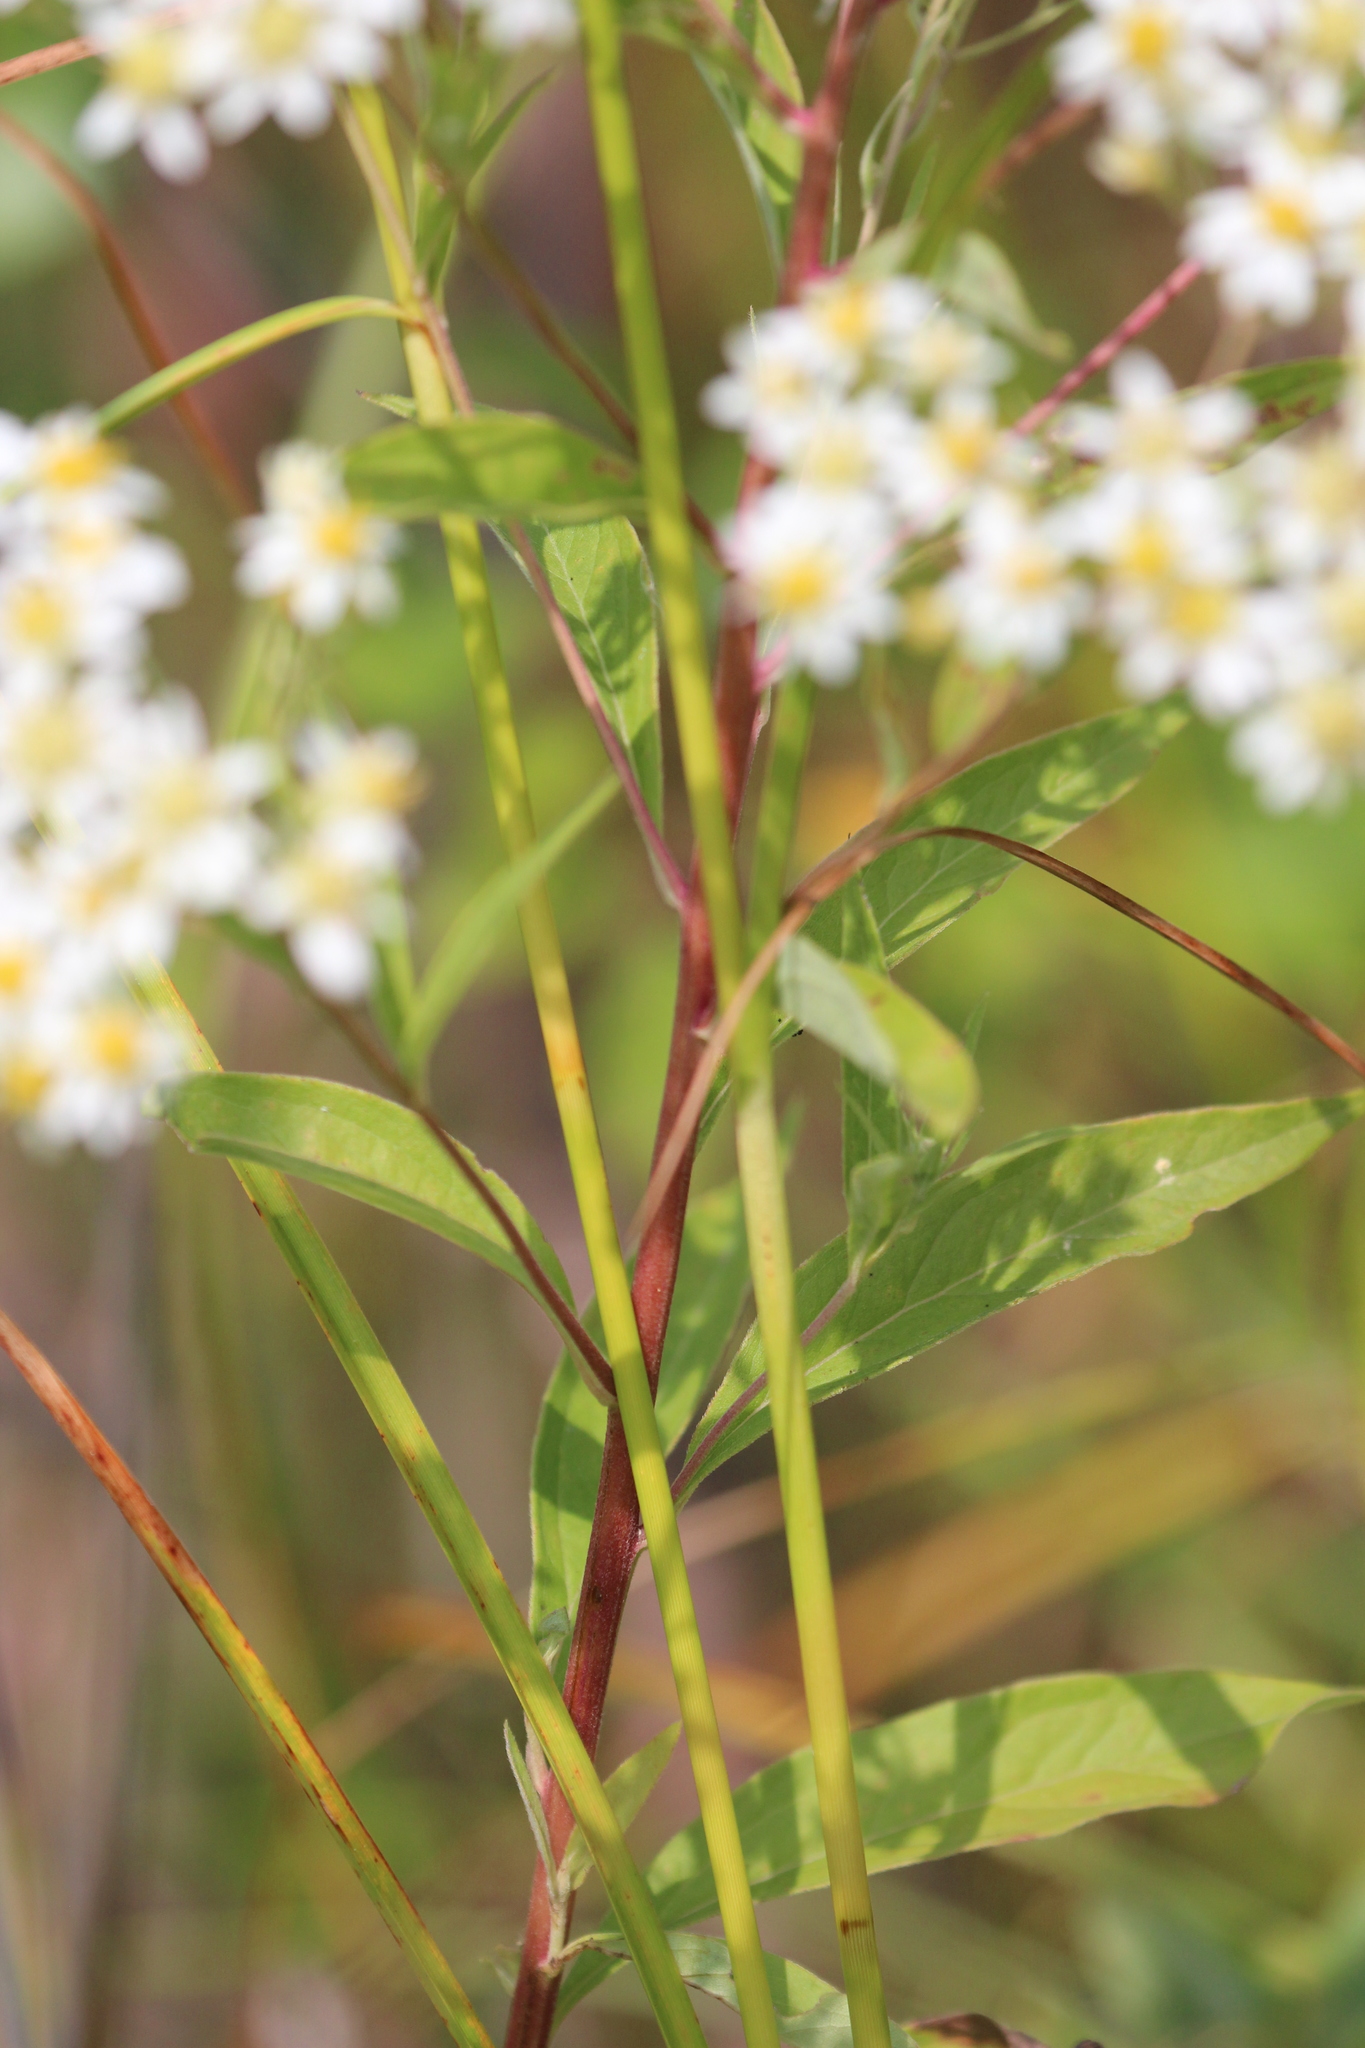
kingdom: Plantae
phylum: Tracheophyta
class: Magnoliopsida
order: Asterales
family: Asteraceae
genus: Doellingeria
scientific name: Doellingeria umbellata
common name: Flat-top white aster
